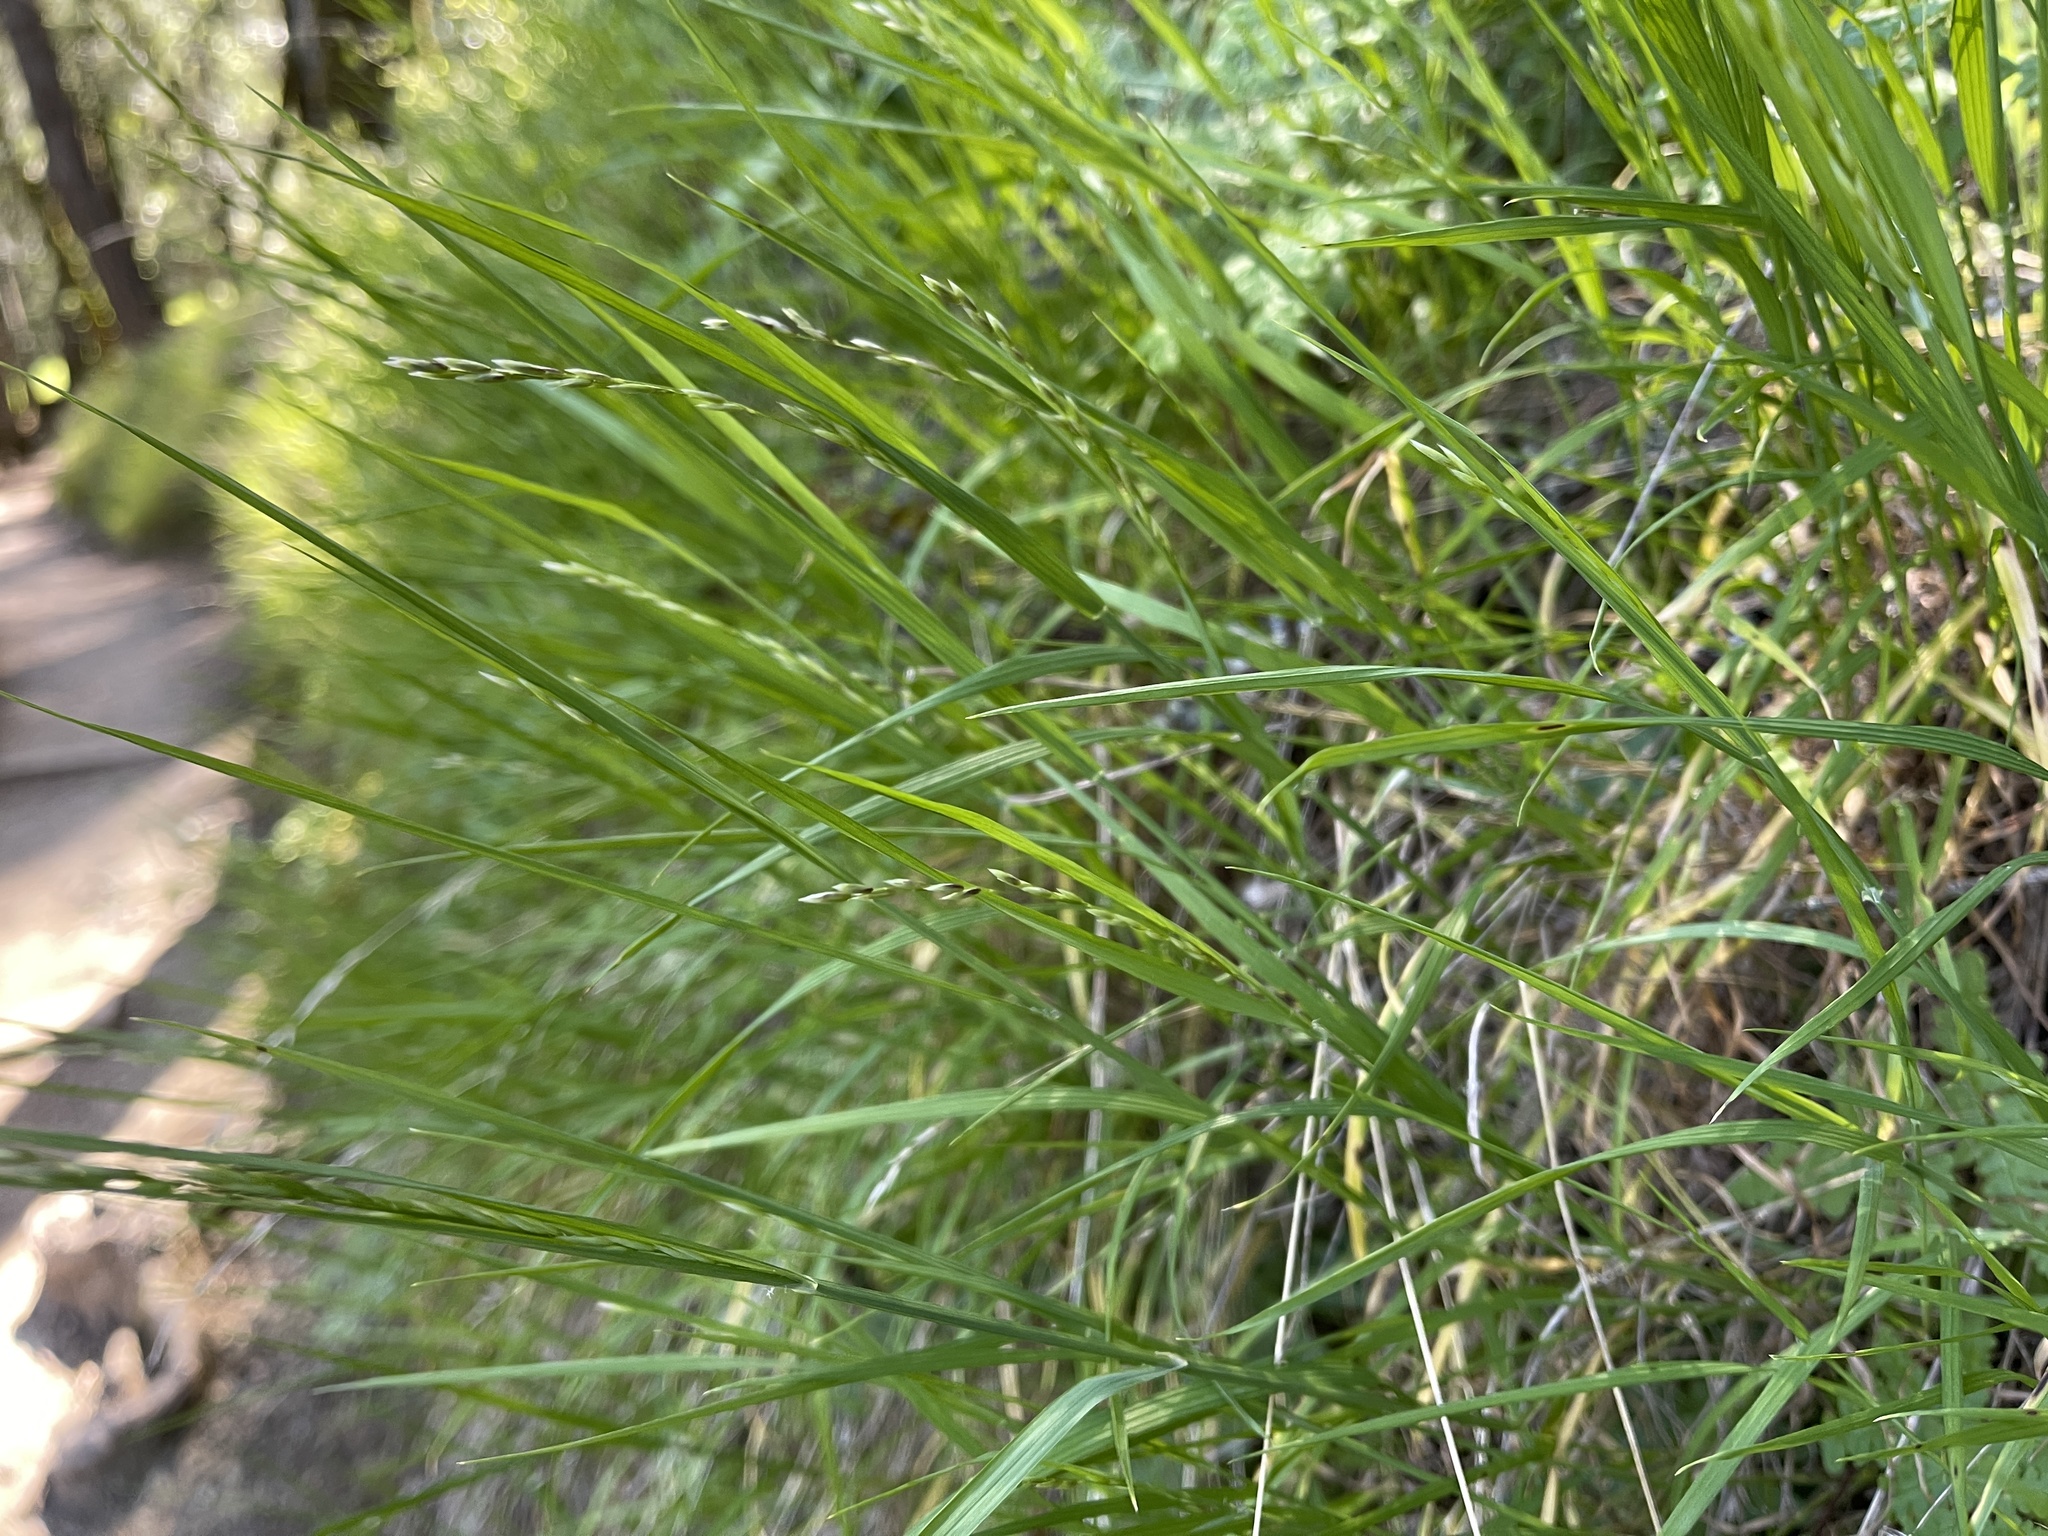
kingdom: Plantae
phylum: Tracheophyta
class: Liliopsida
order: Poales
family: Poaceae
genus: Melica
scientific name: Melica torreyana
